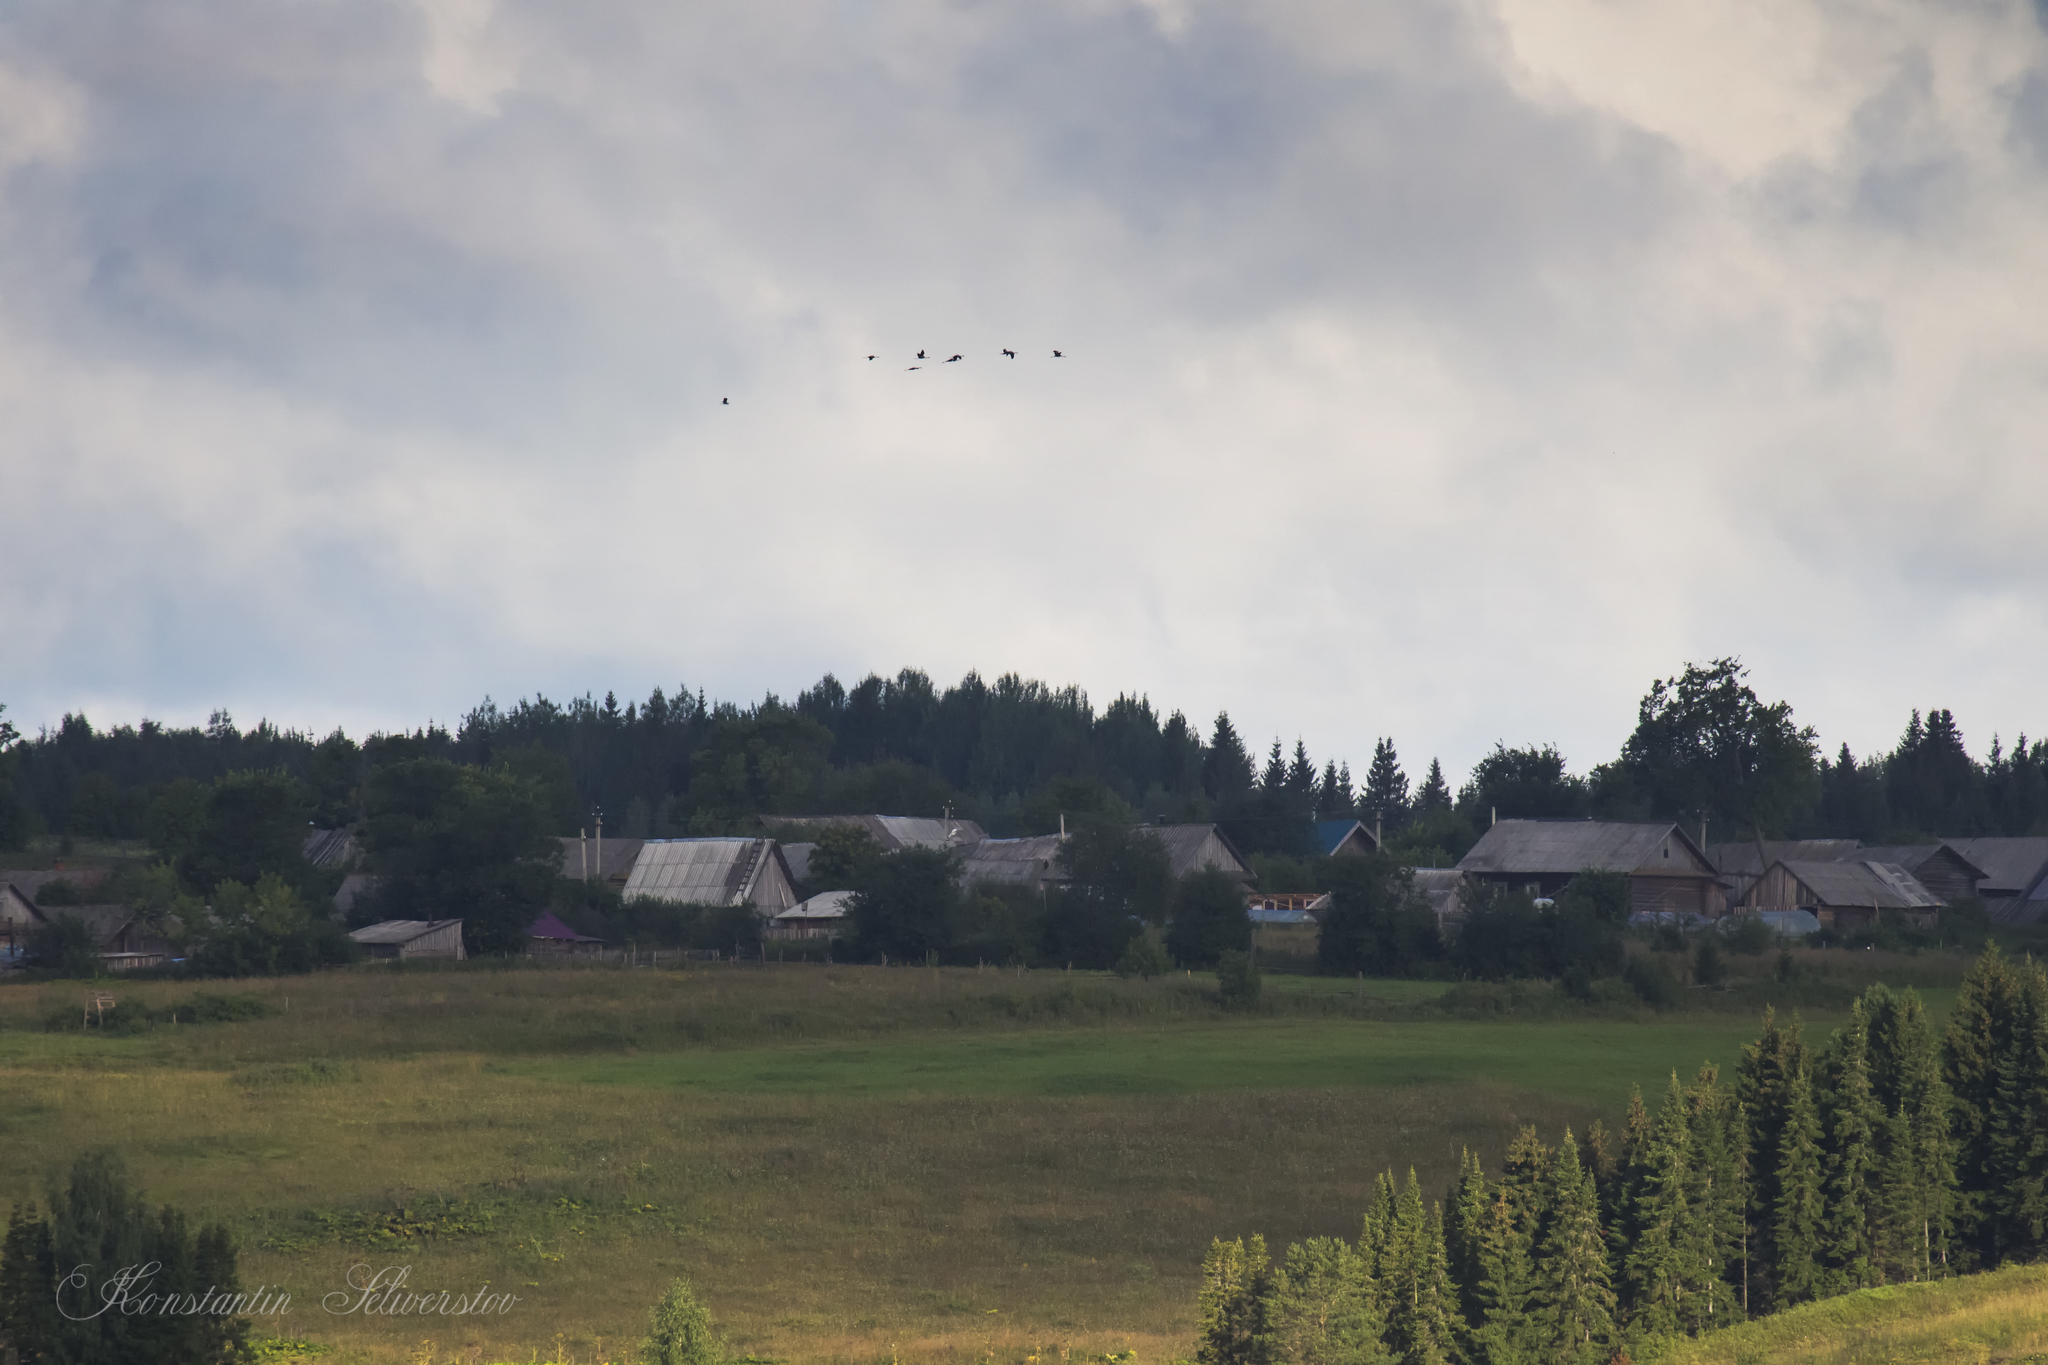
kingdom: Animalia
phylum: Chordata
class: Aves
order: Gruiformes
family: Gruidae
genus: Grus
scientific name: Grus grus
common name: Common crane
